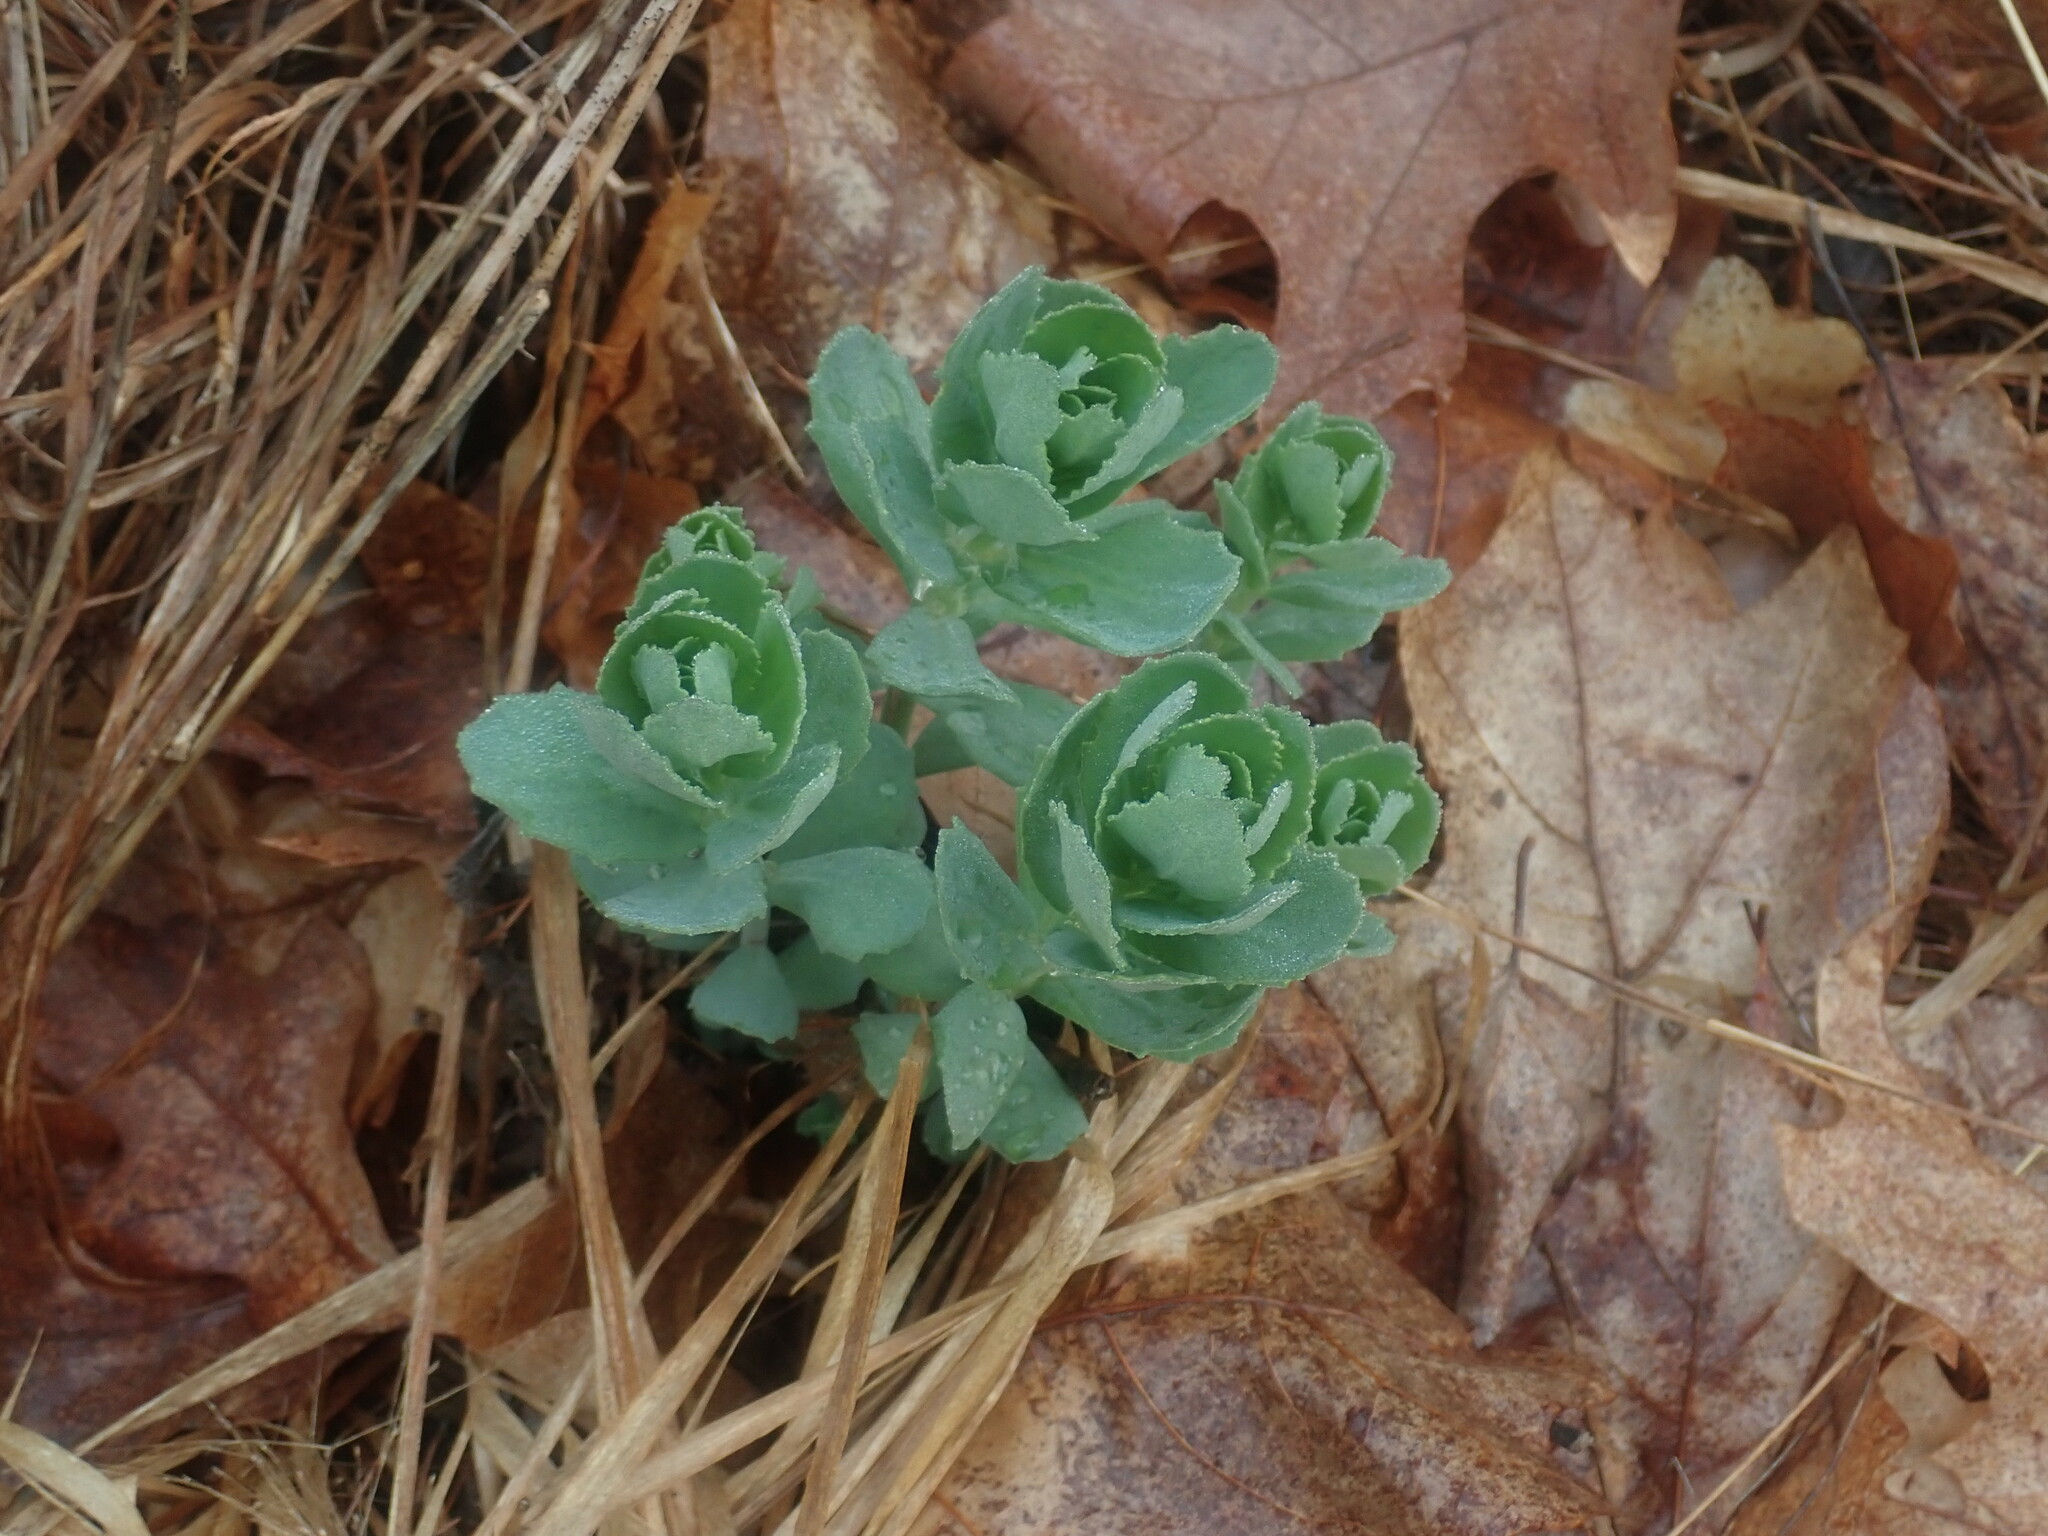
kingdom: Plantae
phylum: Tracheophyta
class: Magnoliopsida
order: Saxifragales
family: Crassulaceae
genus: Hylotelephium
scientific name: Hylotelephium telephium
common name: Live-forever
